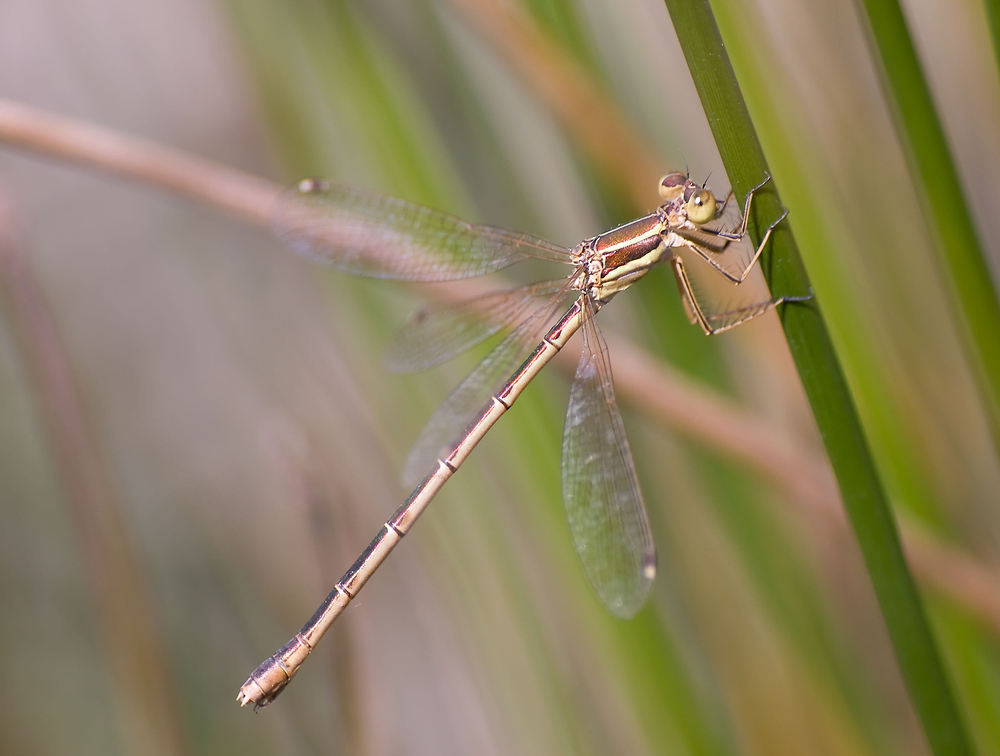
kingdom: Animalia
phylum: Arthropoda
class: Insecta
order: Odonata
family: Lestidae
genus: Lestes
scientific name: Lestes barbarus
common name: Migrant spreadwing
